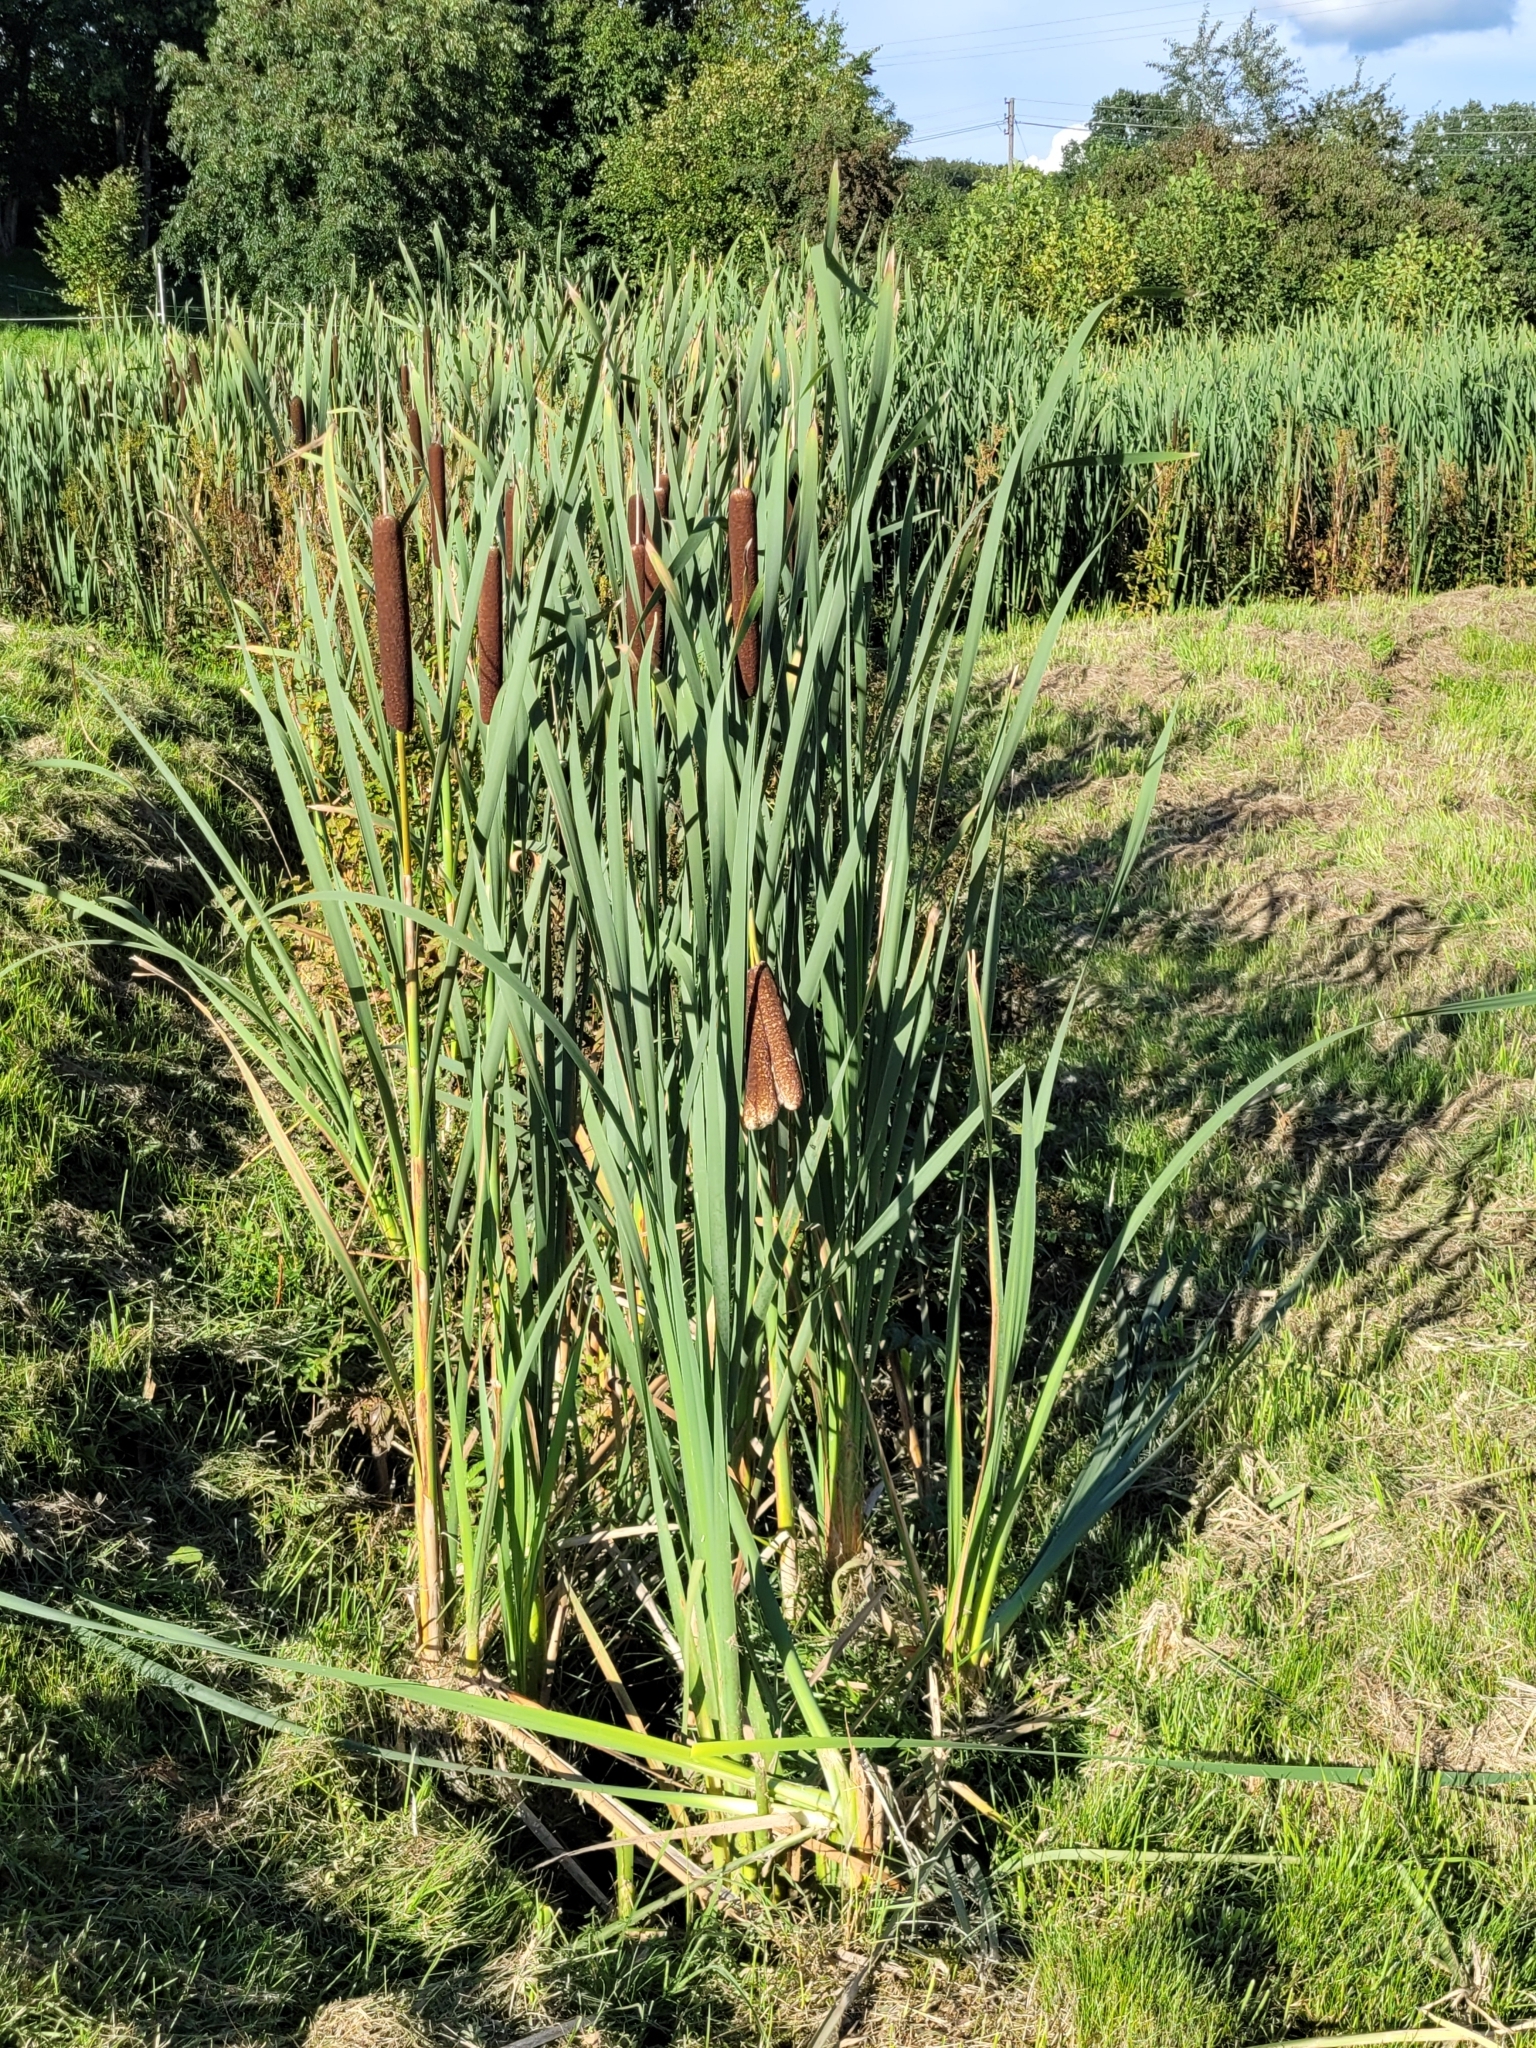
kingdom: Plantae
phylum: Tracheophyta
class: Liliopsida
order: Poales
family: Typhaceae
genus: Typha
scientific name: Typha latifolia
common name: Broadleaf cattail
